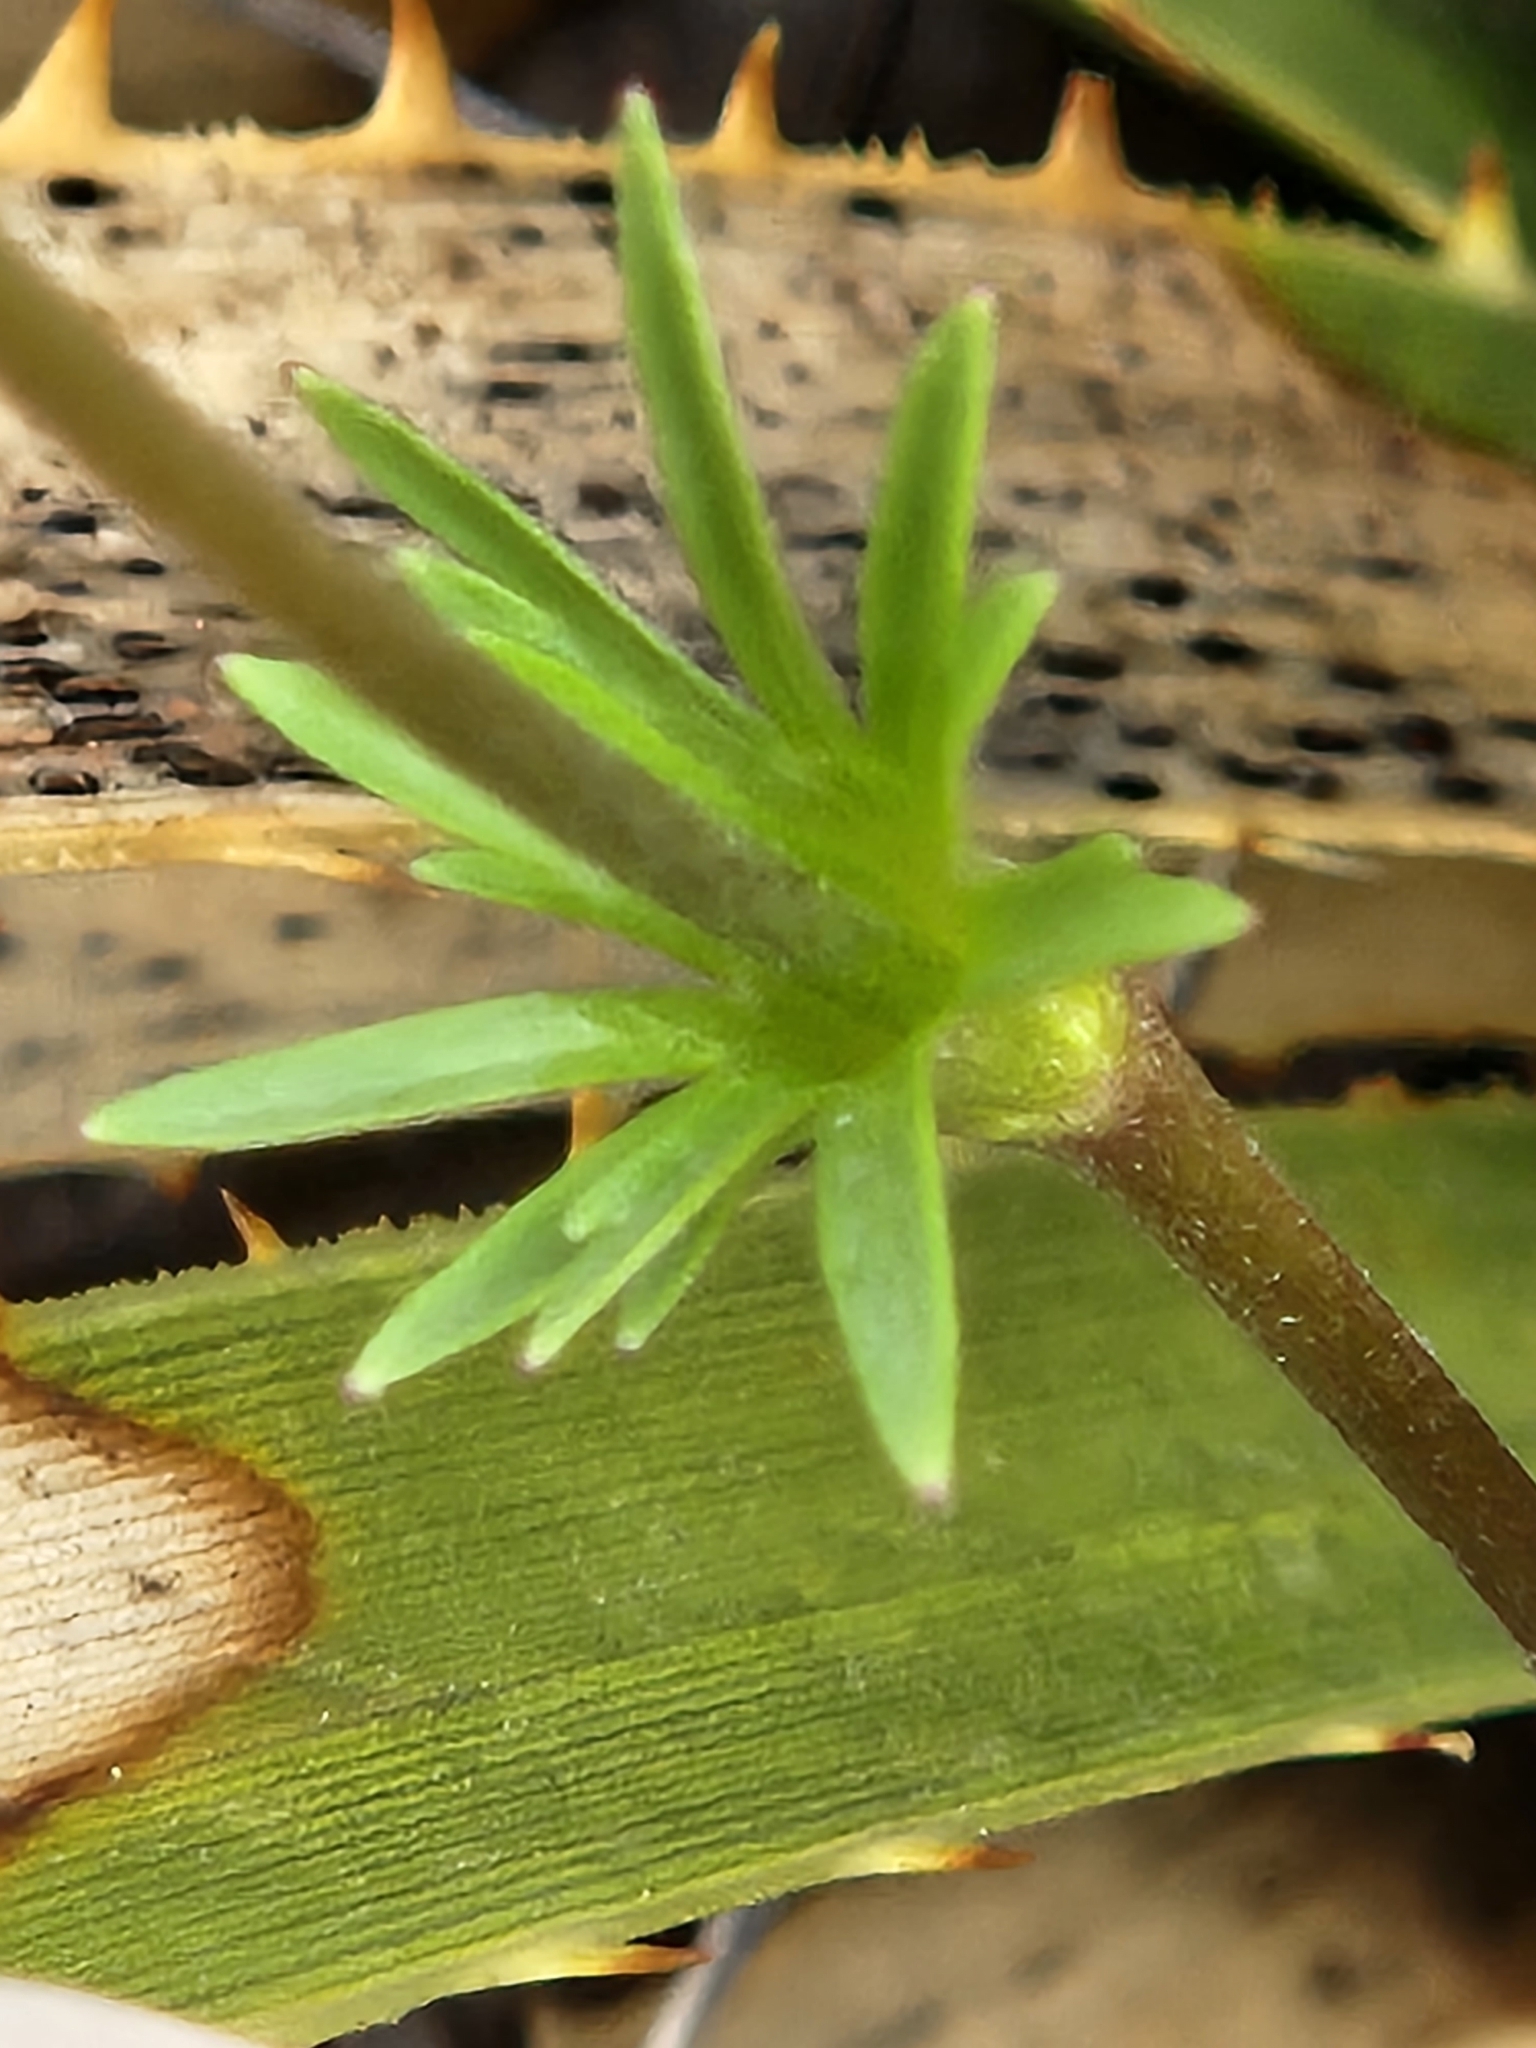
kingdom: Plantae
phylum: Tracheophyta
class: Magnoliopsida
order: Ranunculales
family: Ranunculaceae
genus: Anemone
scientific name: Anemone edwardsiana
